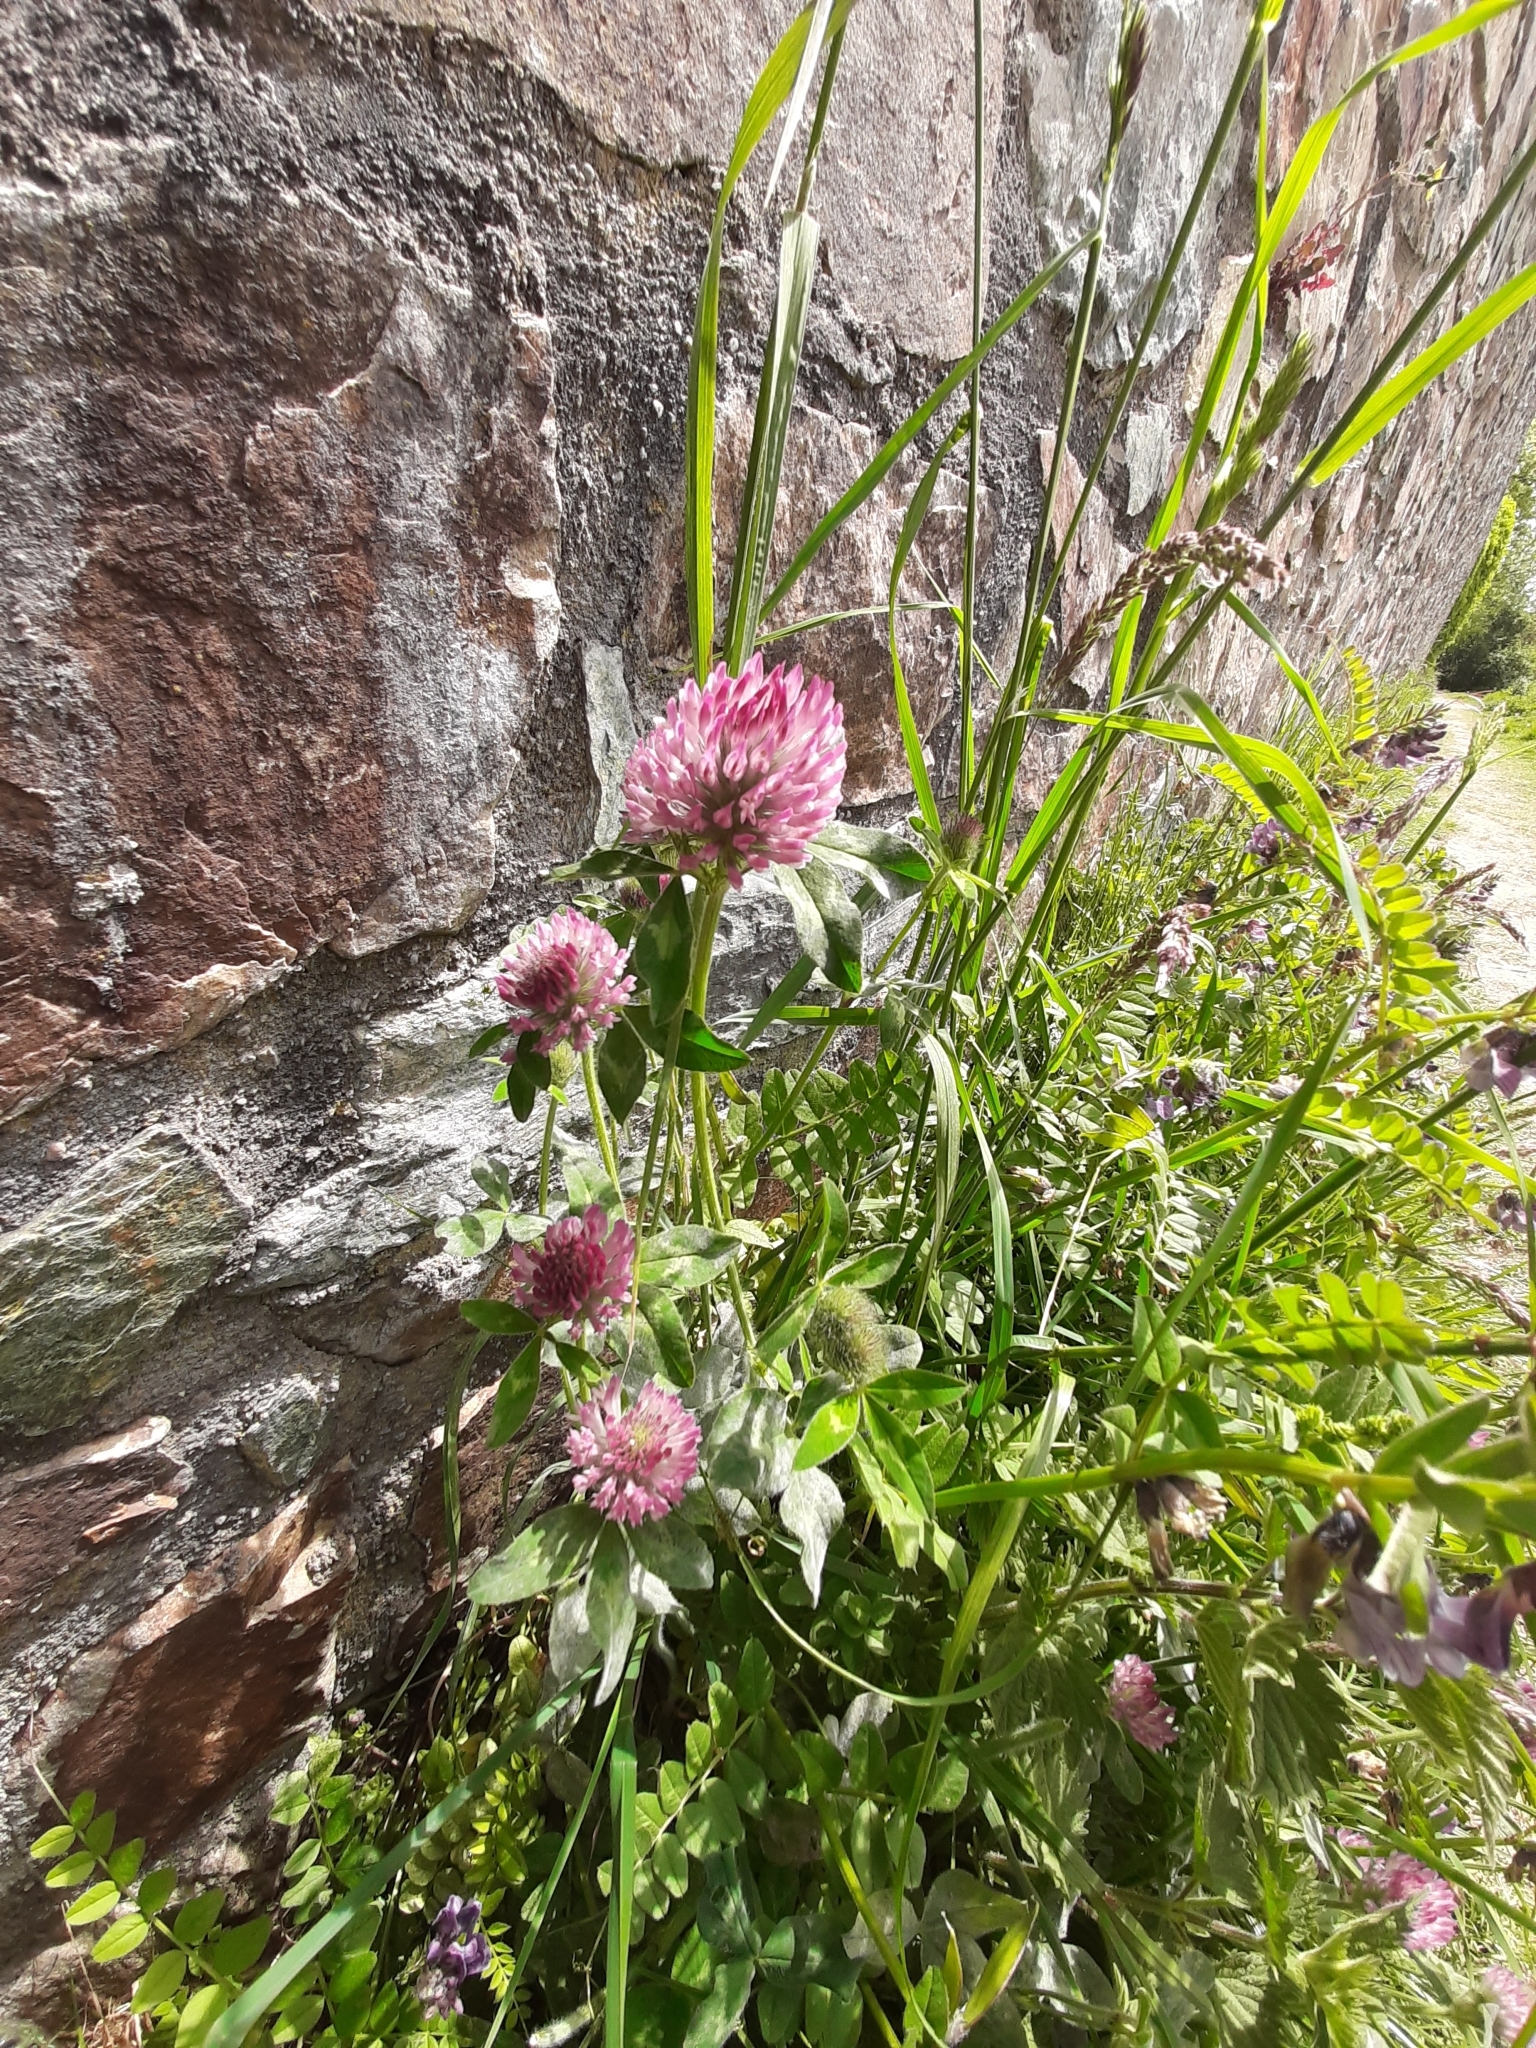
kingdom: Plantae
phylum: Tracheophyta
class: Magnoliopsida
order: Fabales
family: Fabaceae
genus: Trifolium
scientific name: Trifolium pratense
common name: Red clover
